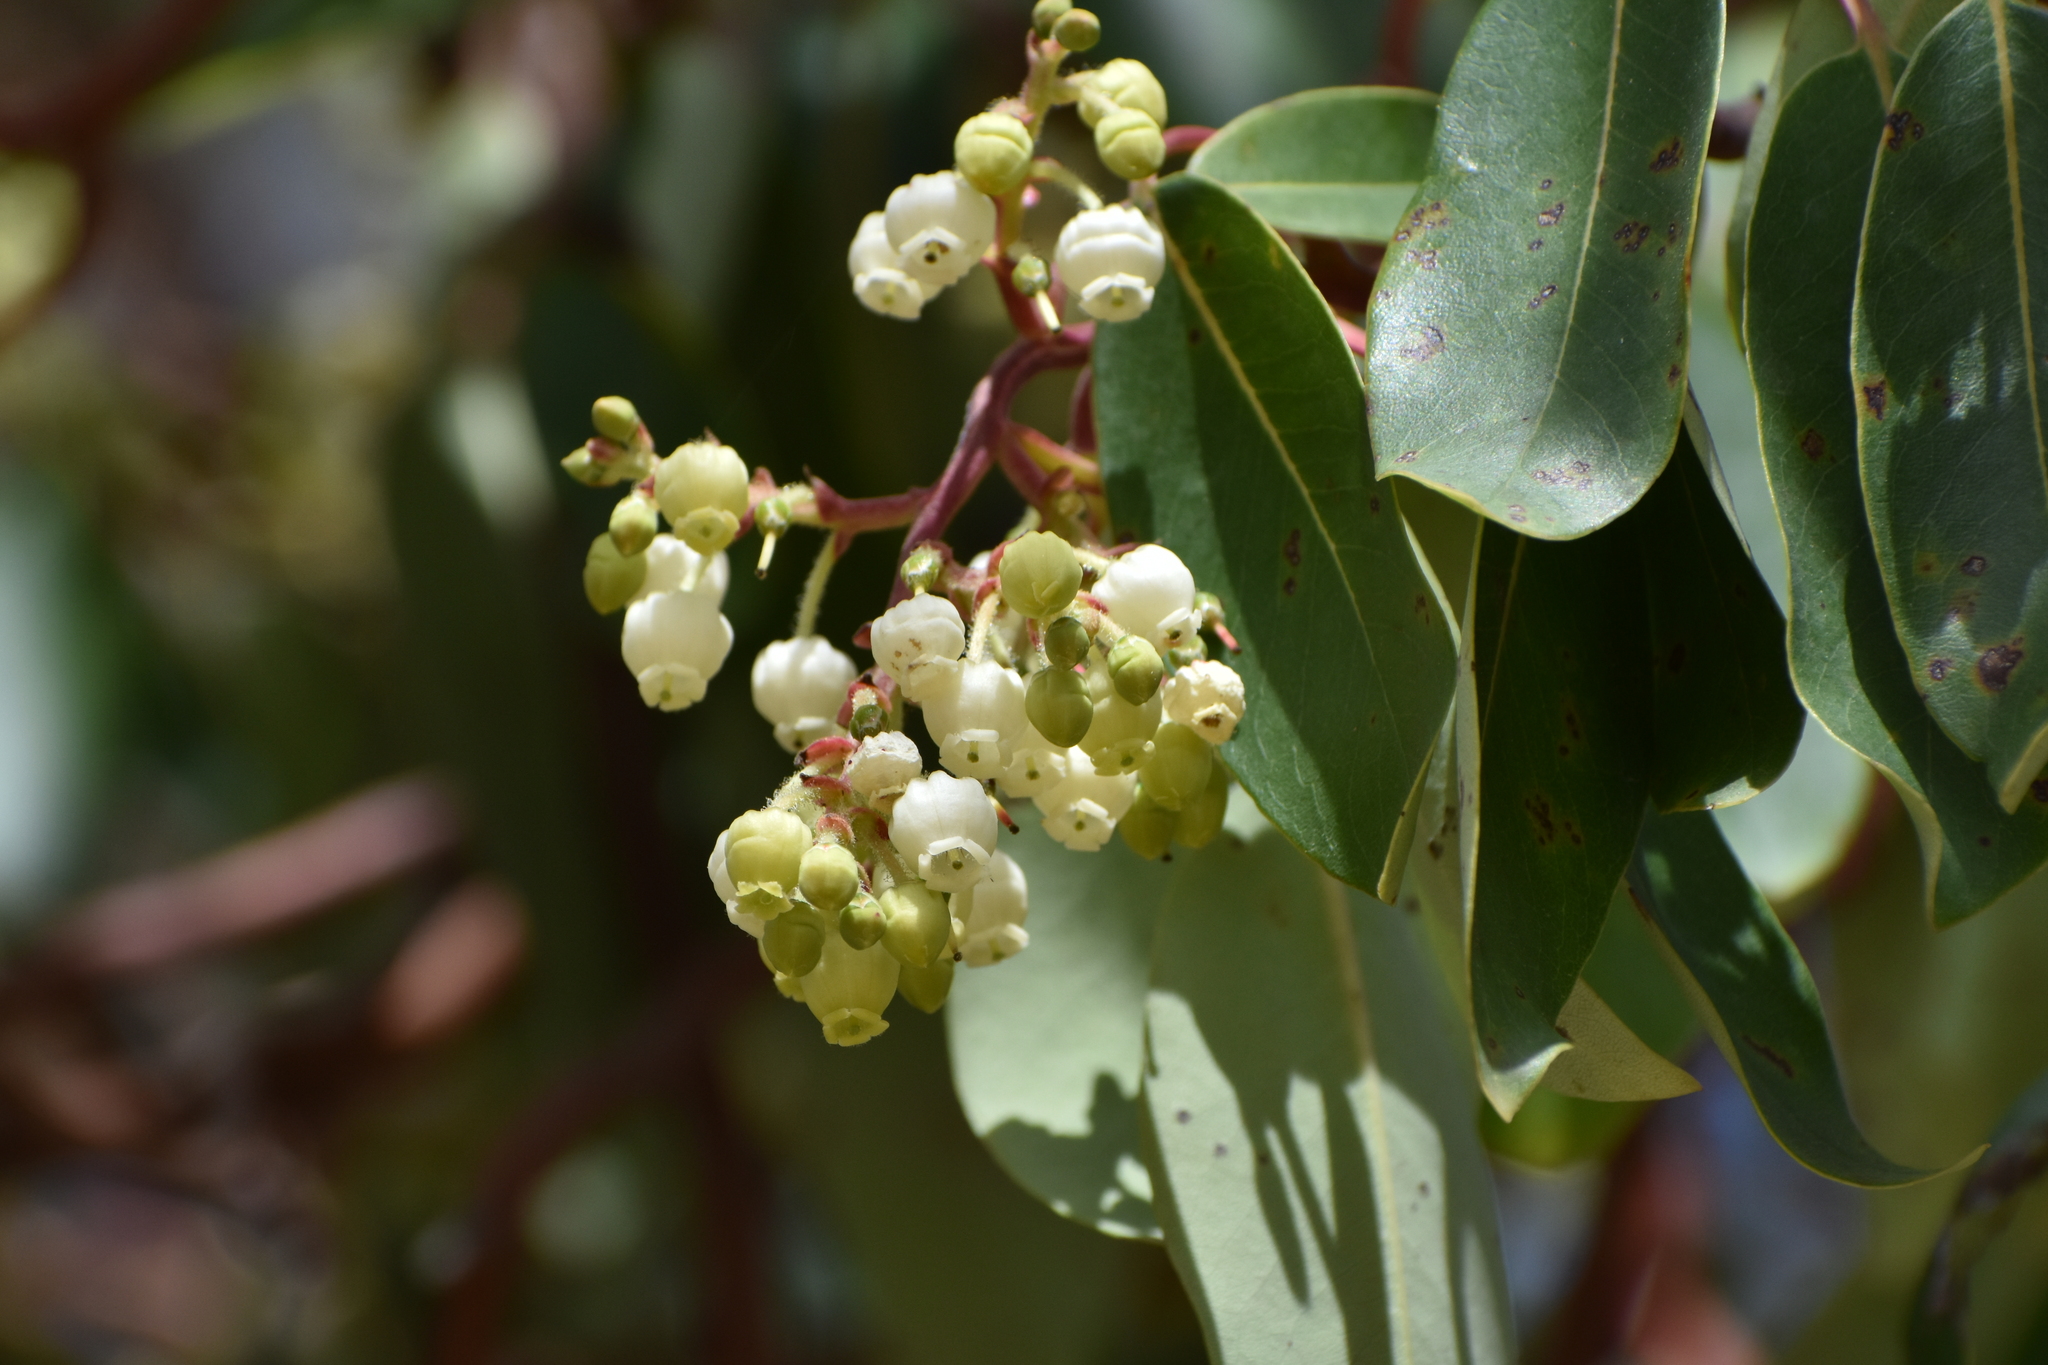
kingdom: Plantae
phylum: Tracheophyta
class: Magnoliopsida
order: Ericales
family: Ericaceae
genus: Arbutus
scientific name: Arbutus andrachne
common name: Greek strawberry tree
